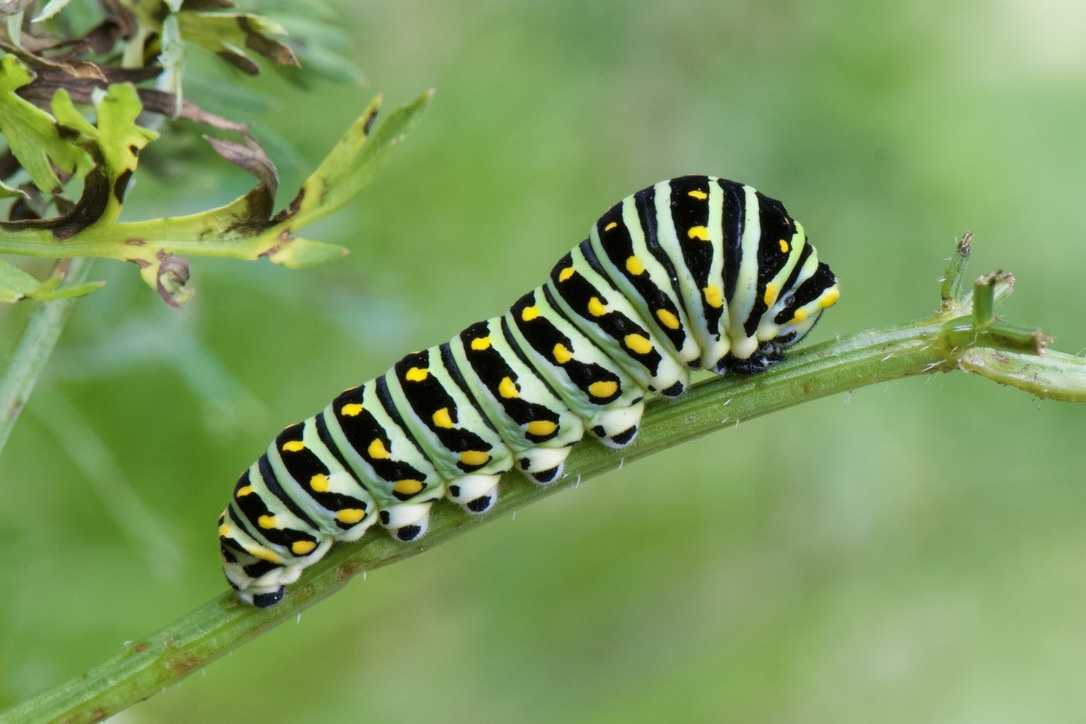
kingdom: Animalia
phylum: Arthropoda
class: Insecta
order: Lepidoptera
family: Papilionidae
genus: Papilio
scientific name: Papilio polyxenes
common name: Black swallowtail
